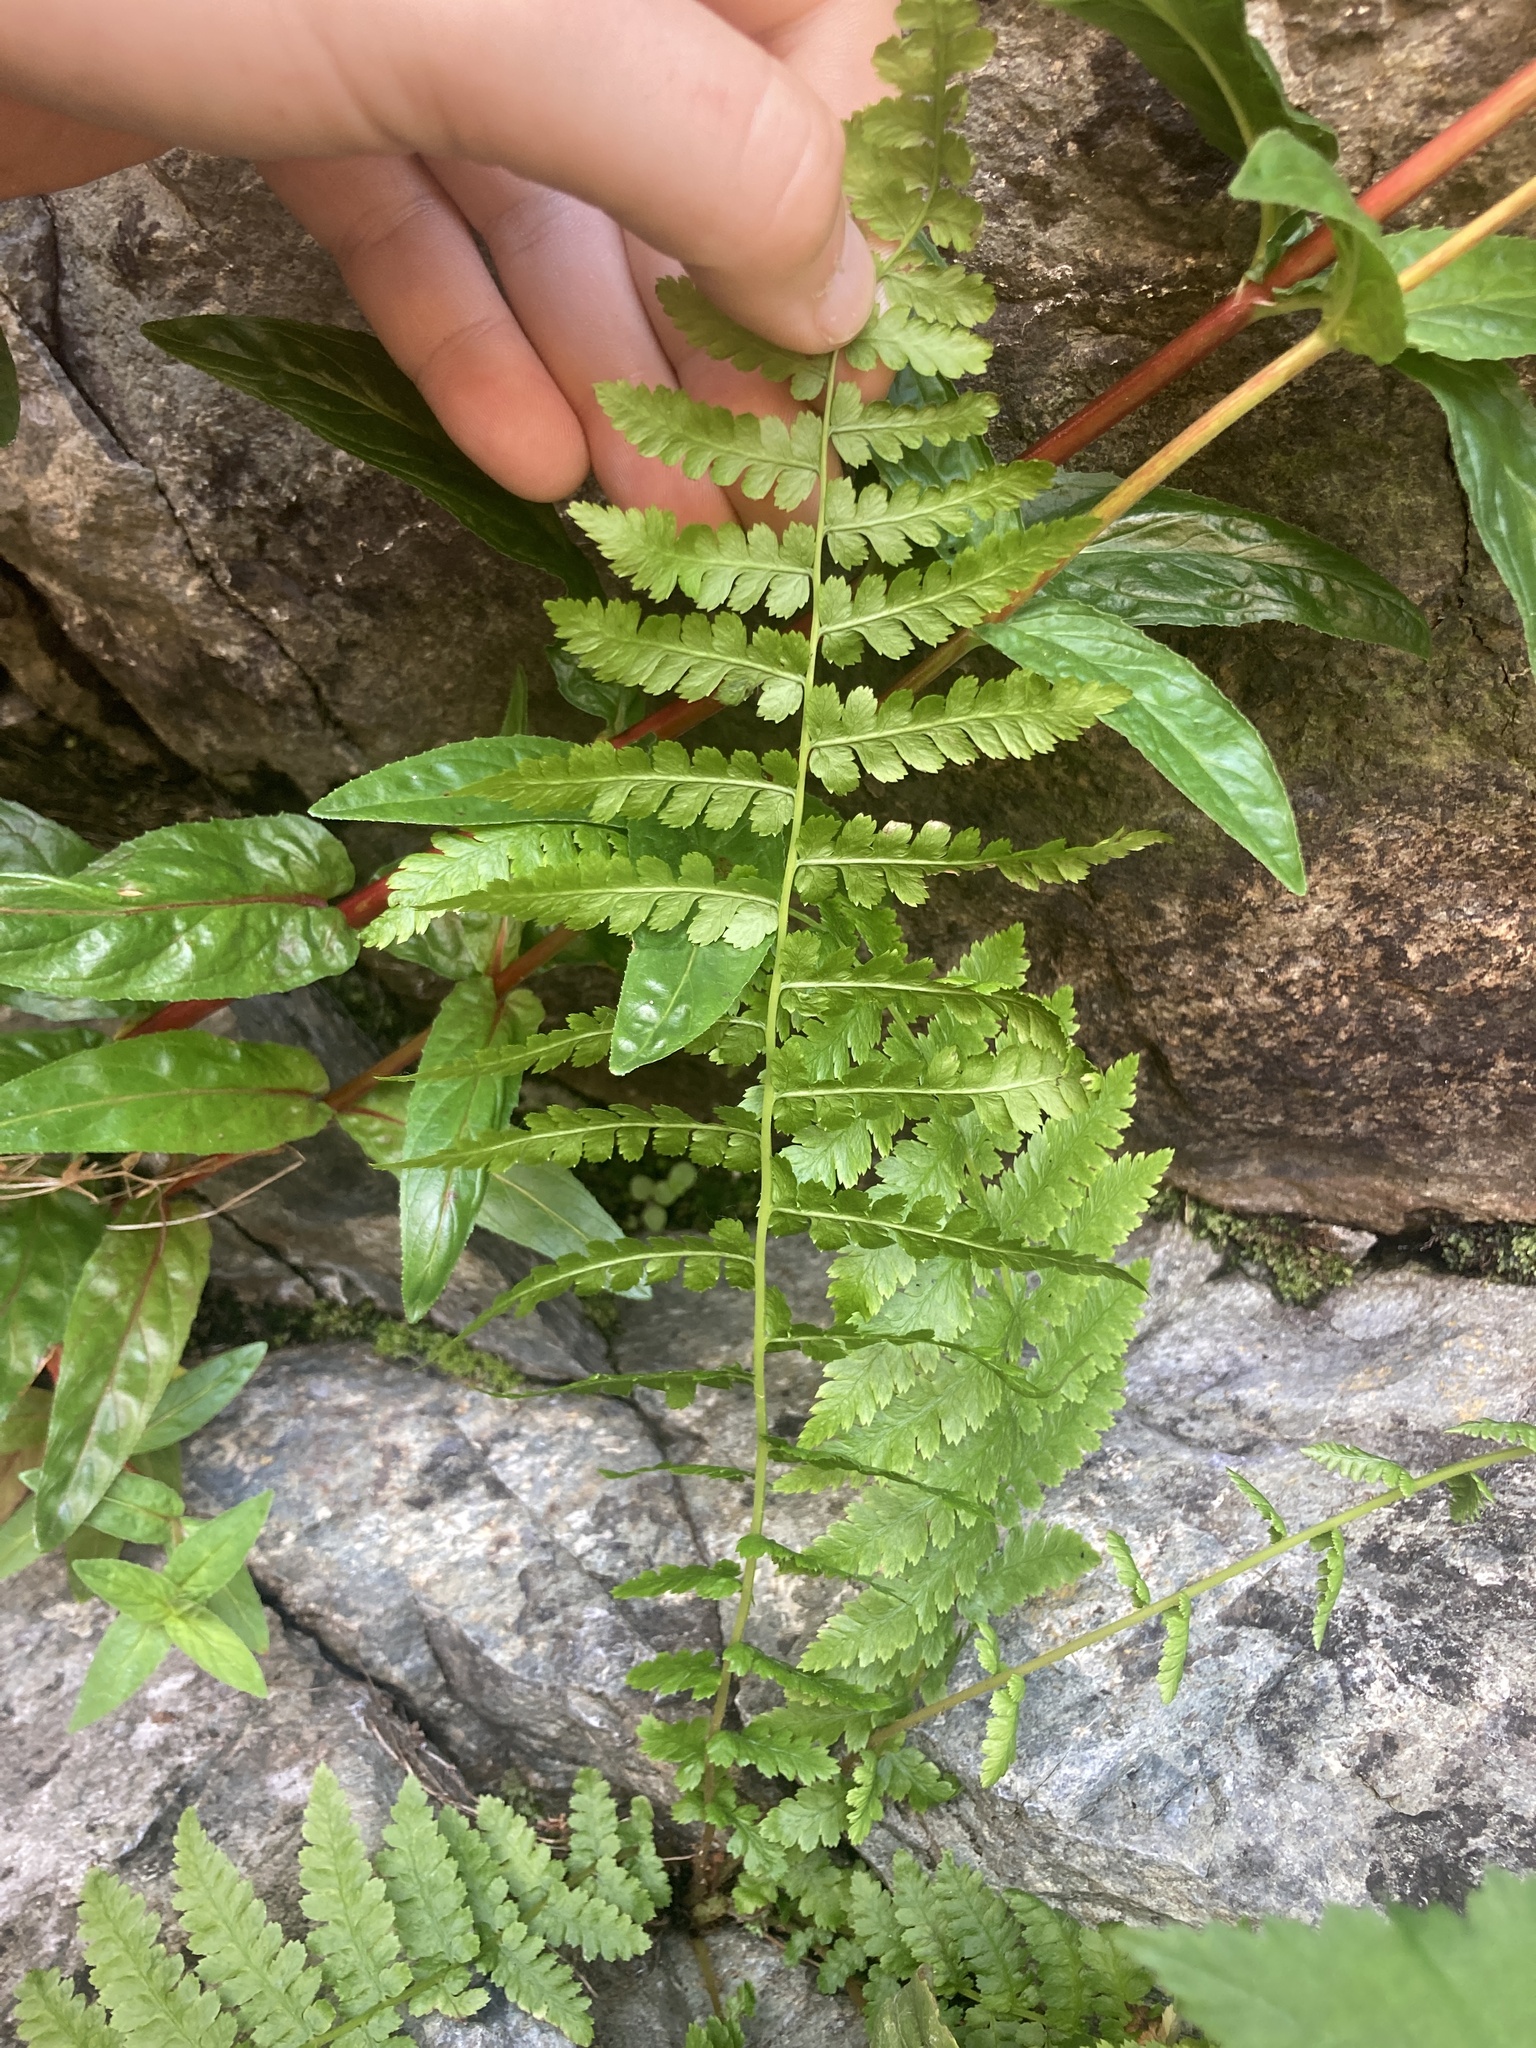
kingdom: Plantae
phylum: Tracheophyta
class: Polypodiopsida
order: Polypodiales
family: Athyriaceae
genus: Athyrium
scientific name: Athyrium filix-femina
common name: Lady fern
